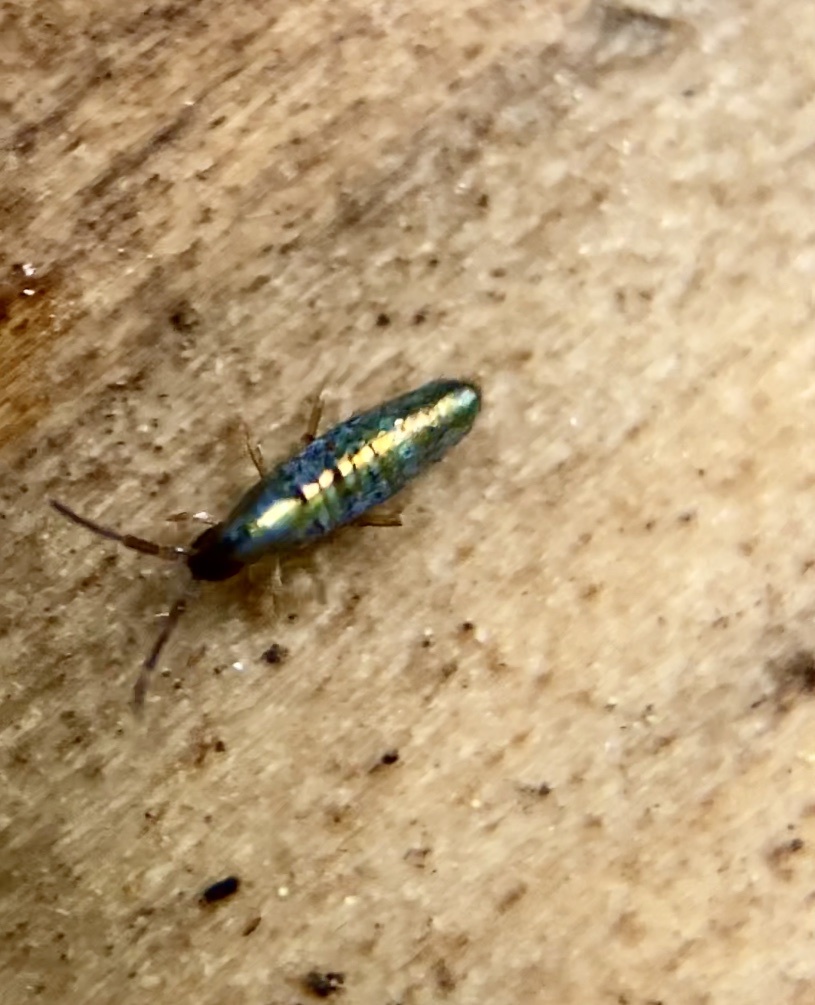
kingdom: Animalia
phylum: Arthropoda
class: Collembola
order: Entomobryomorpha
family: Entomobryidae
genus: Lepidocyrtus
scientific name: Lepidocyrtus paradoxus
